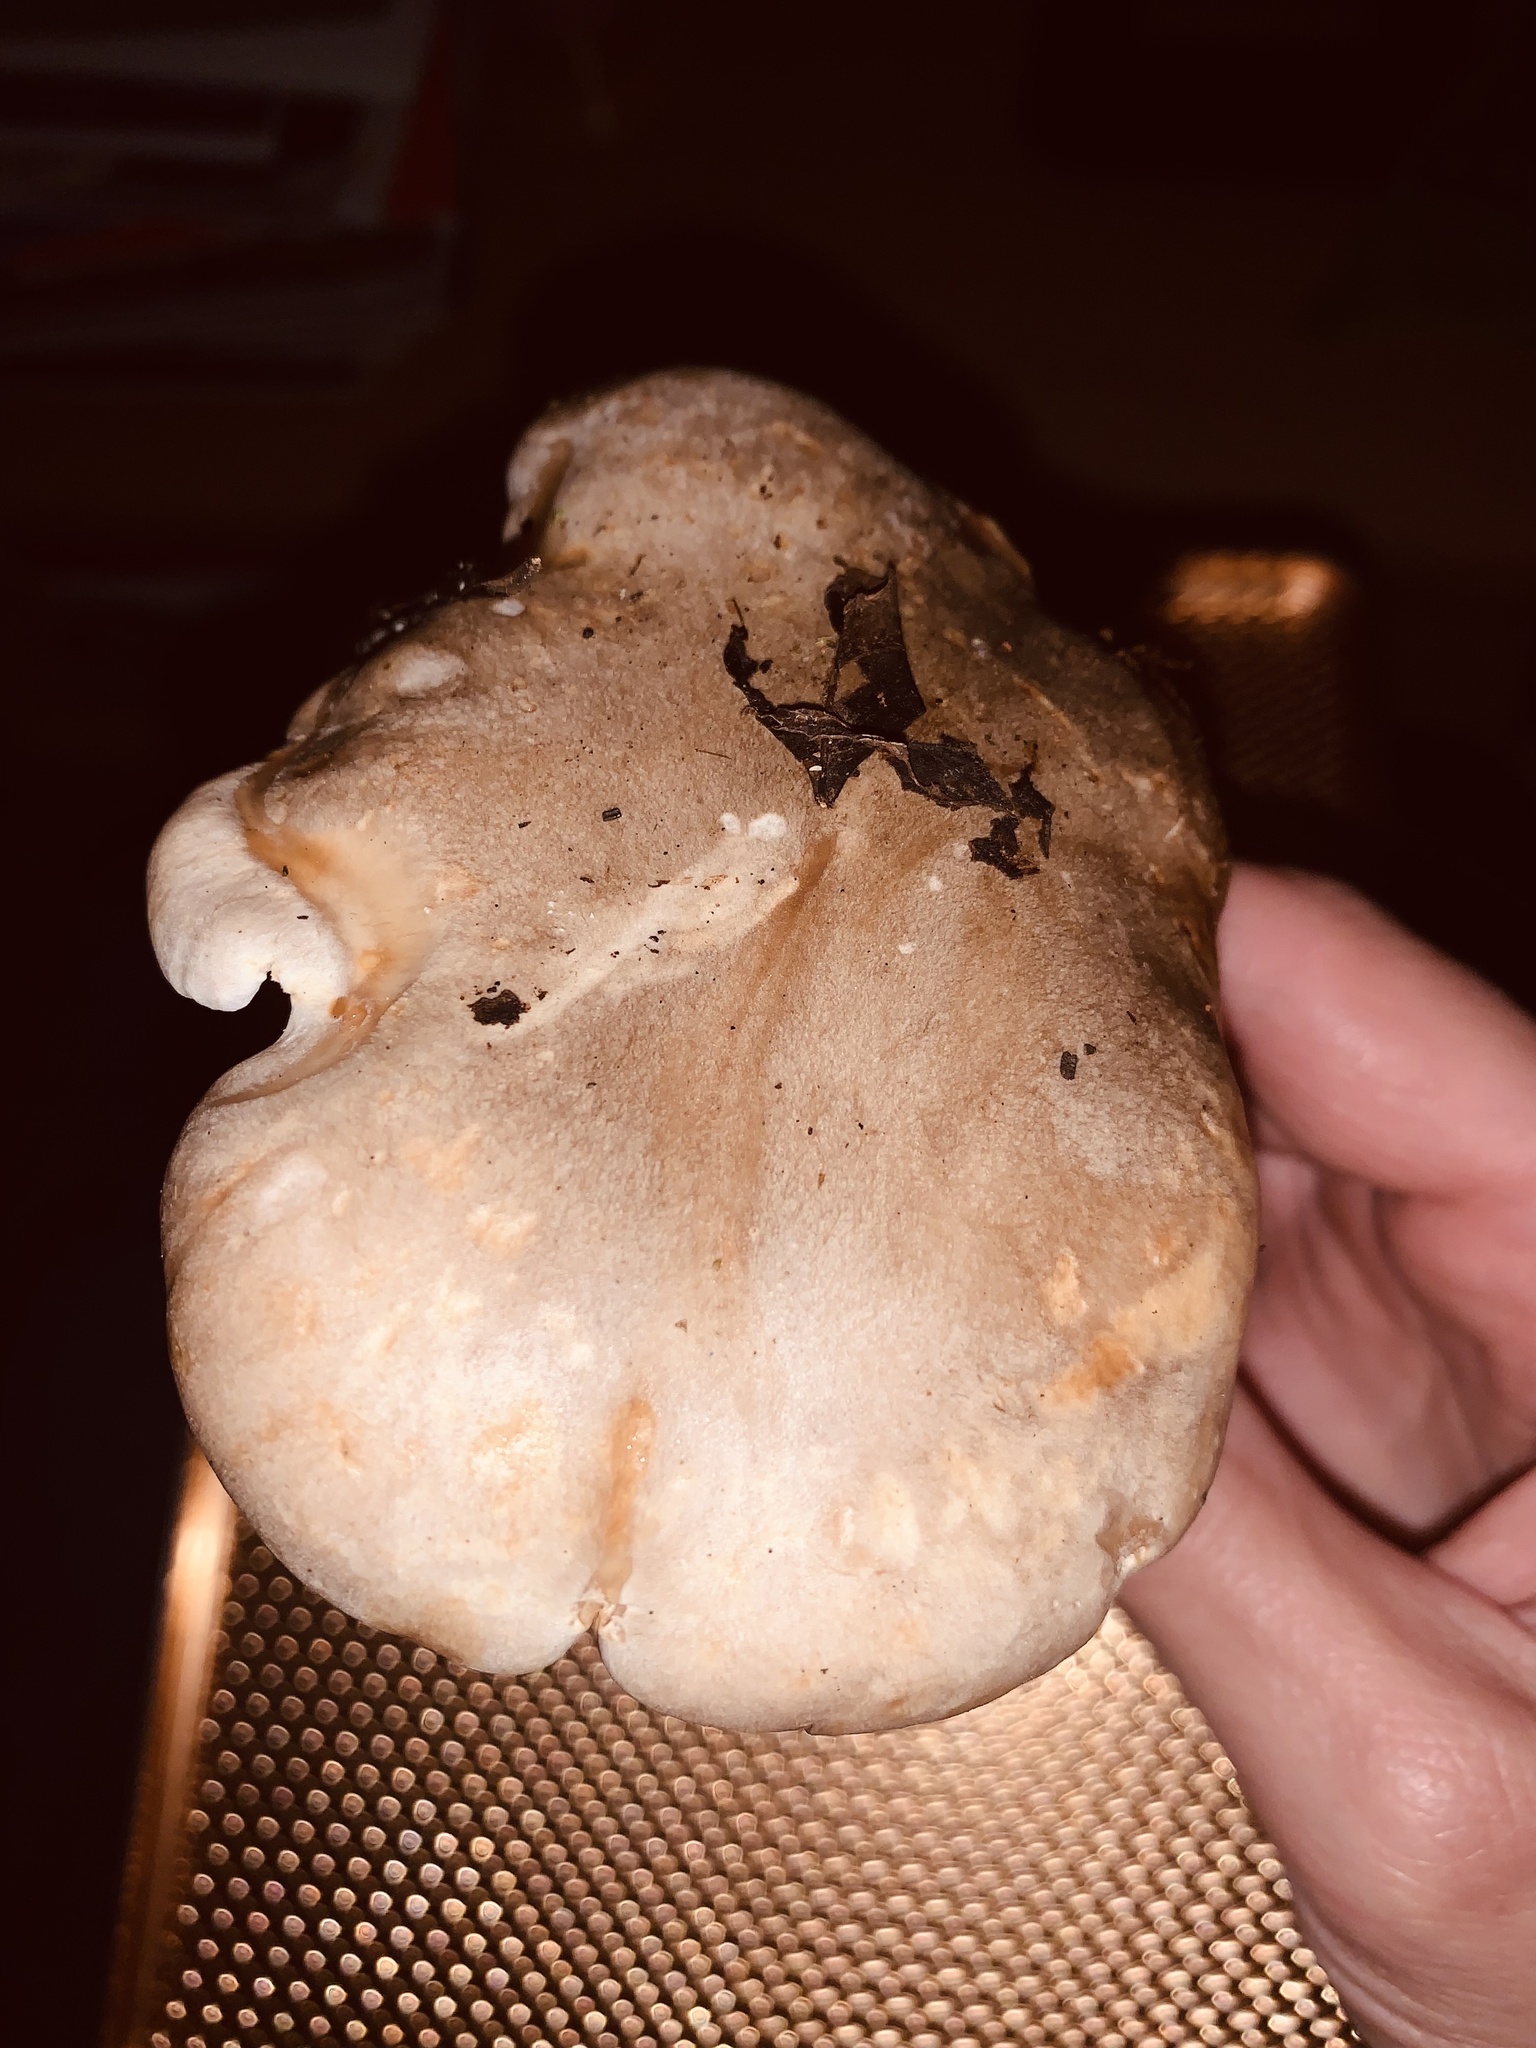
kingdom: Fungi
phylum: Basidiomycota
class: Agaricomycetes
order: Agaricales
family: Tricholomataceae
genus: Clitocybe
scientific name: Clitocybe nebularis
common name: Clouded agaric
